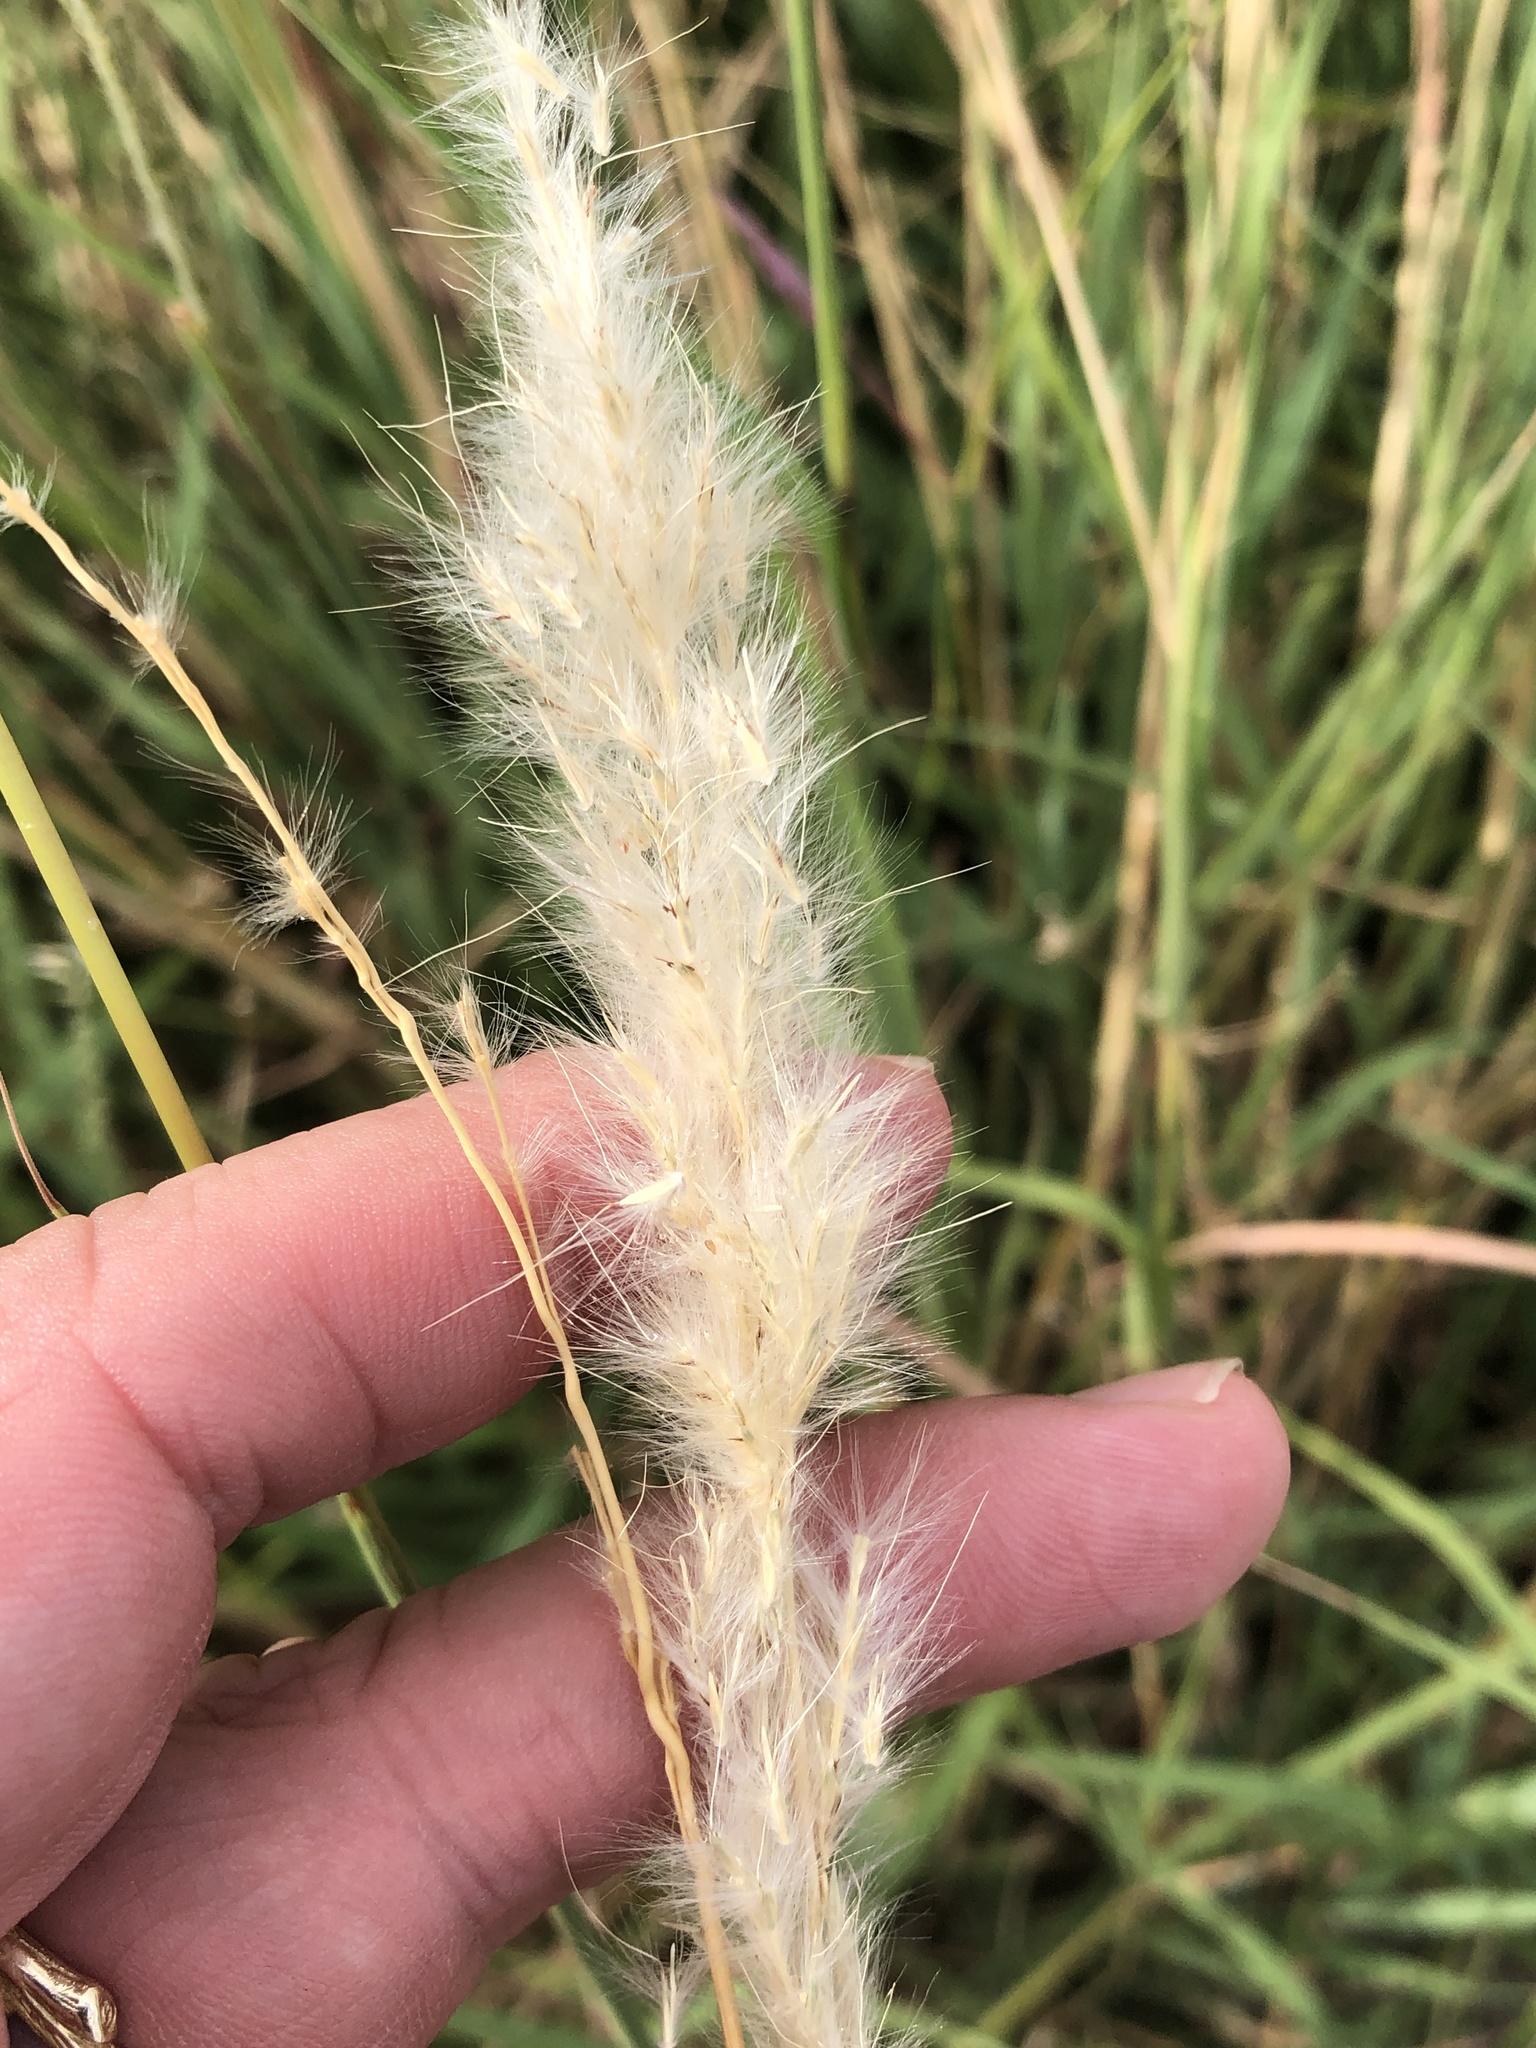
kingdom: Plantae
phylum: Tracheophyta
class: Liliopsida
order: Poales
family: Poaceae
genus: Bothriochloa
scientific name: Bothriochloa torreyana
